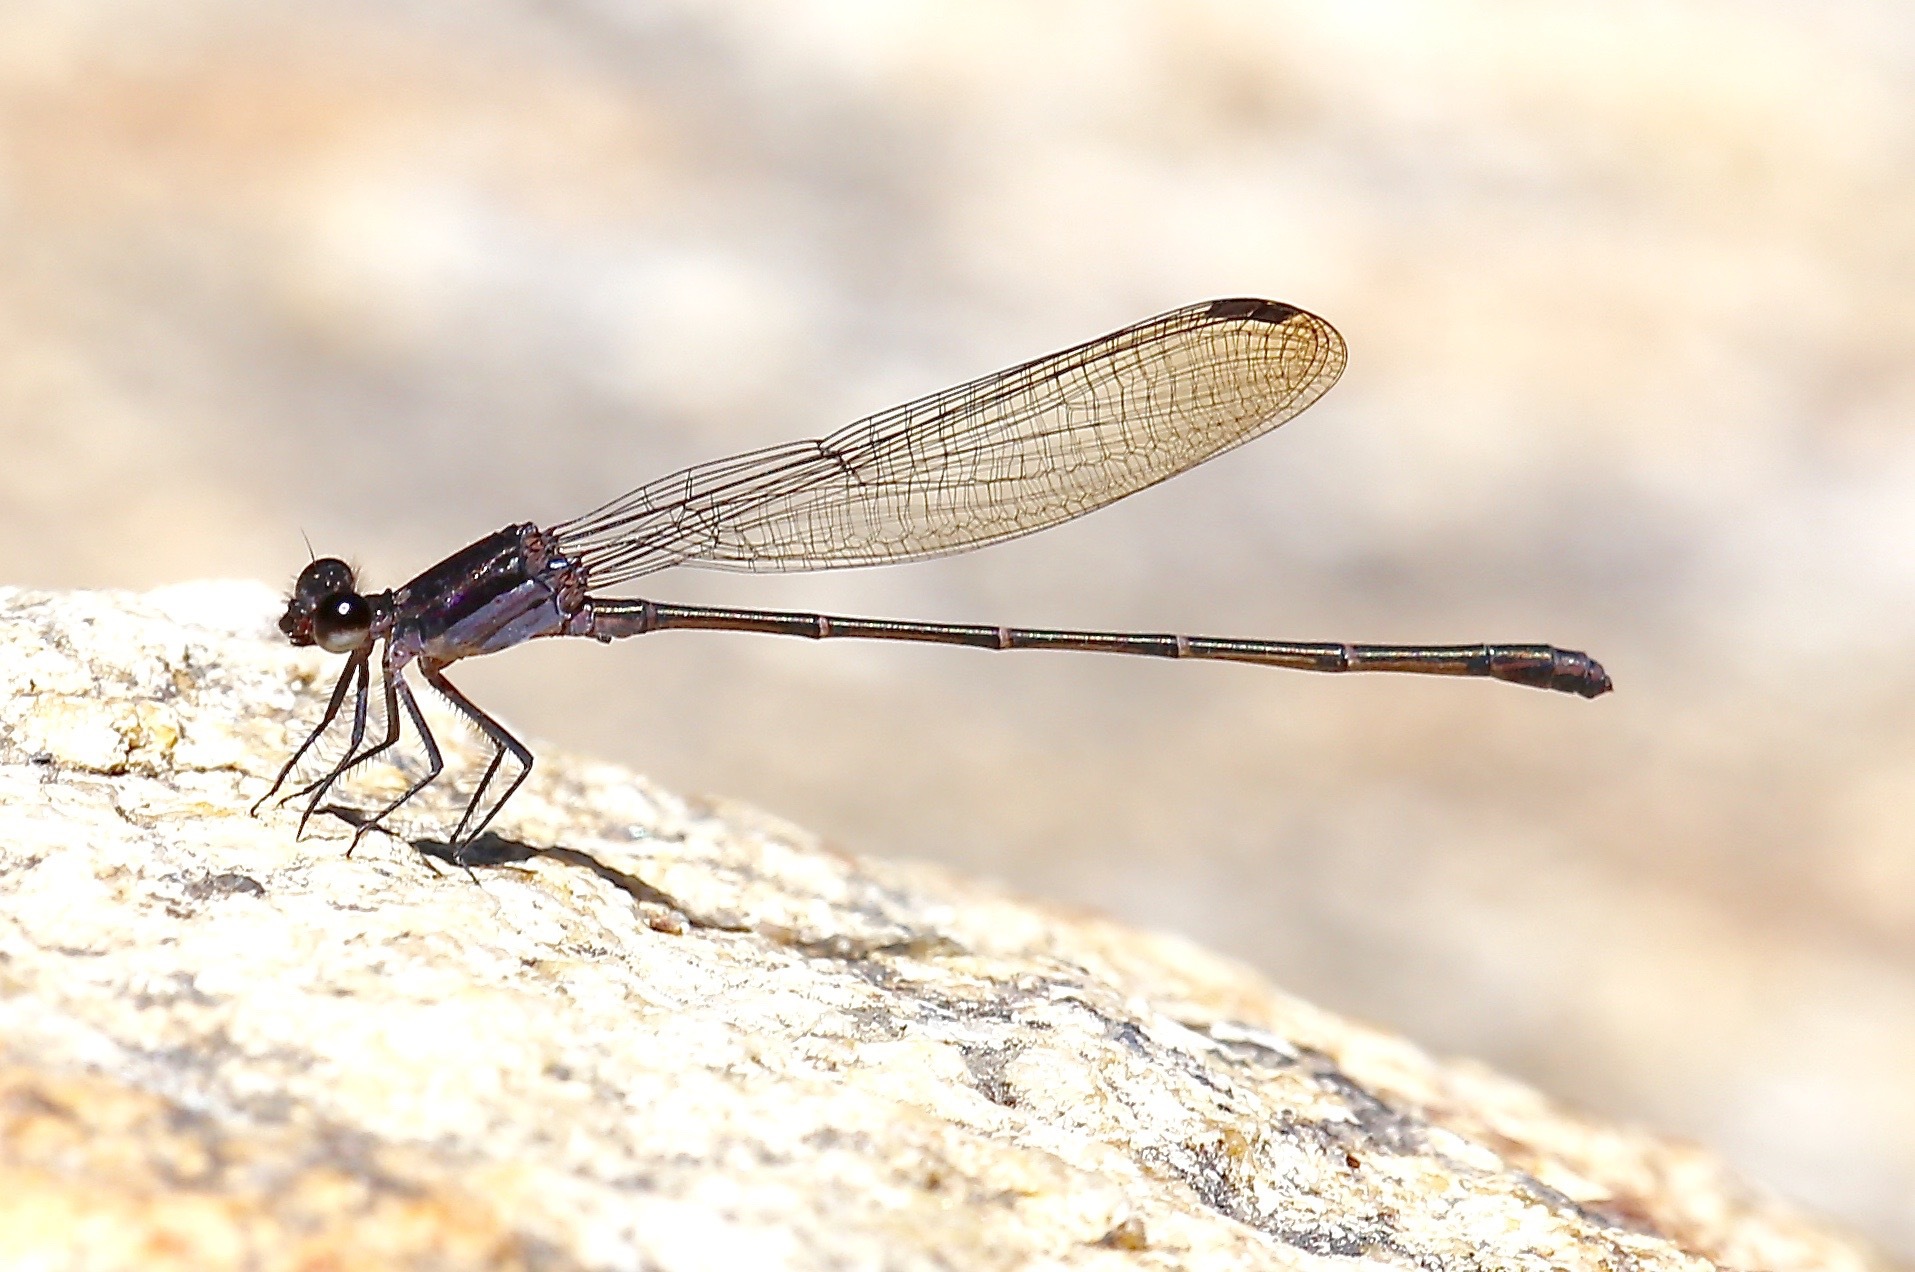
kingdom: Animalia
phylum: Arthropoda
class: Insecta
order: Odonata
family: Coenagrionidae
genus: Argia
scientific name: Argia tezpi
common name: Tezpi dancer
